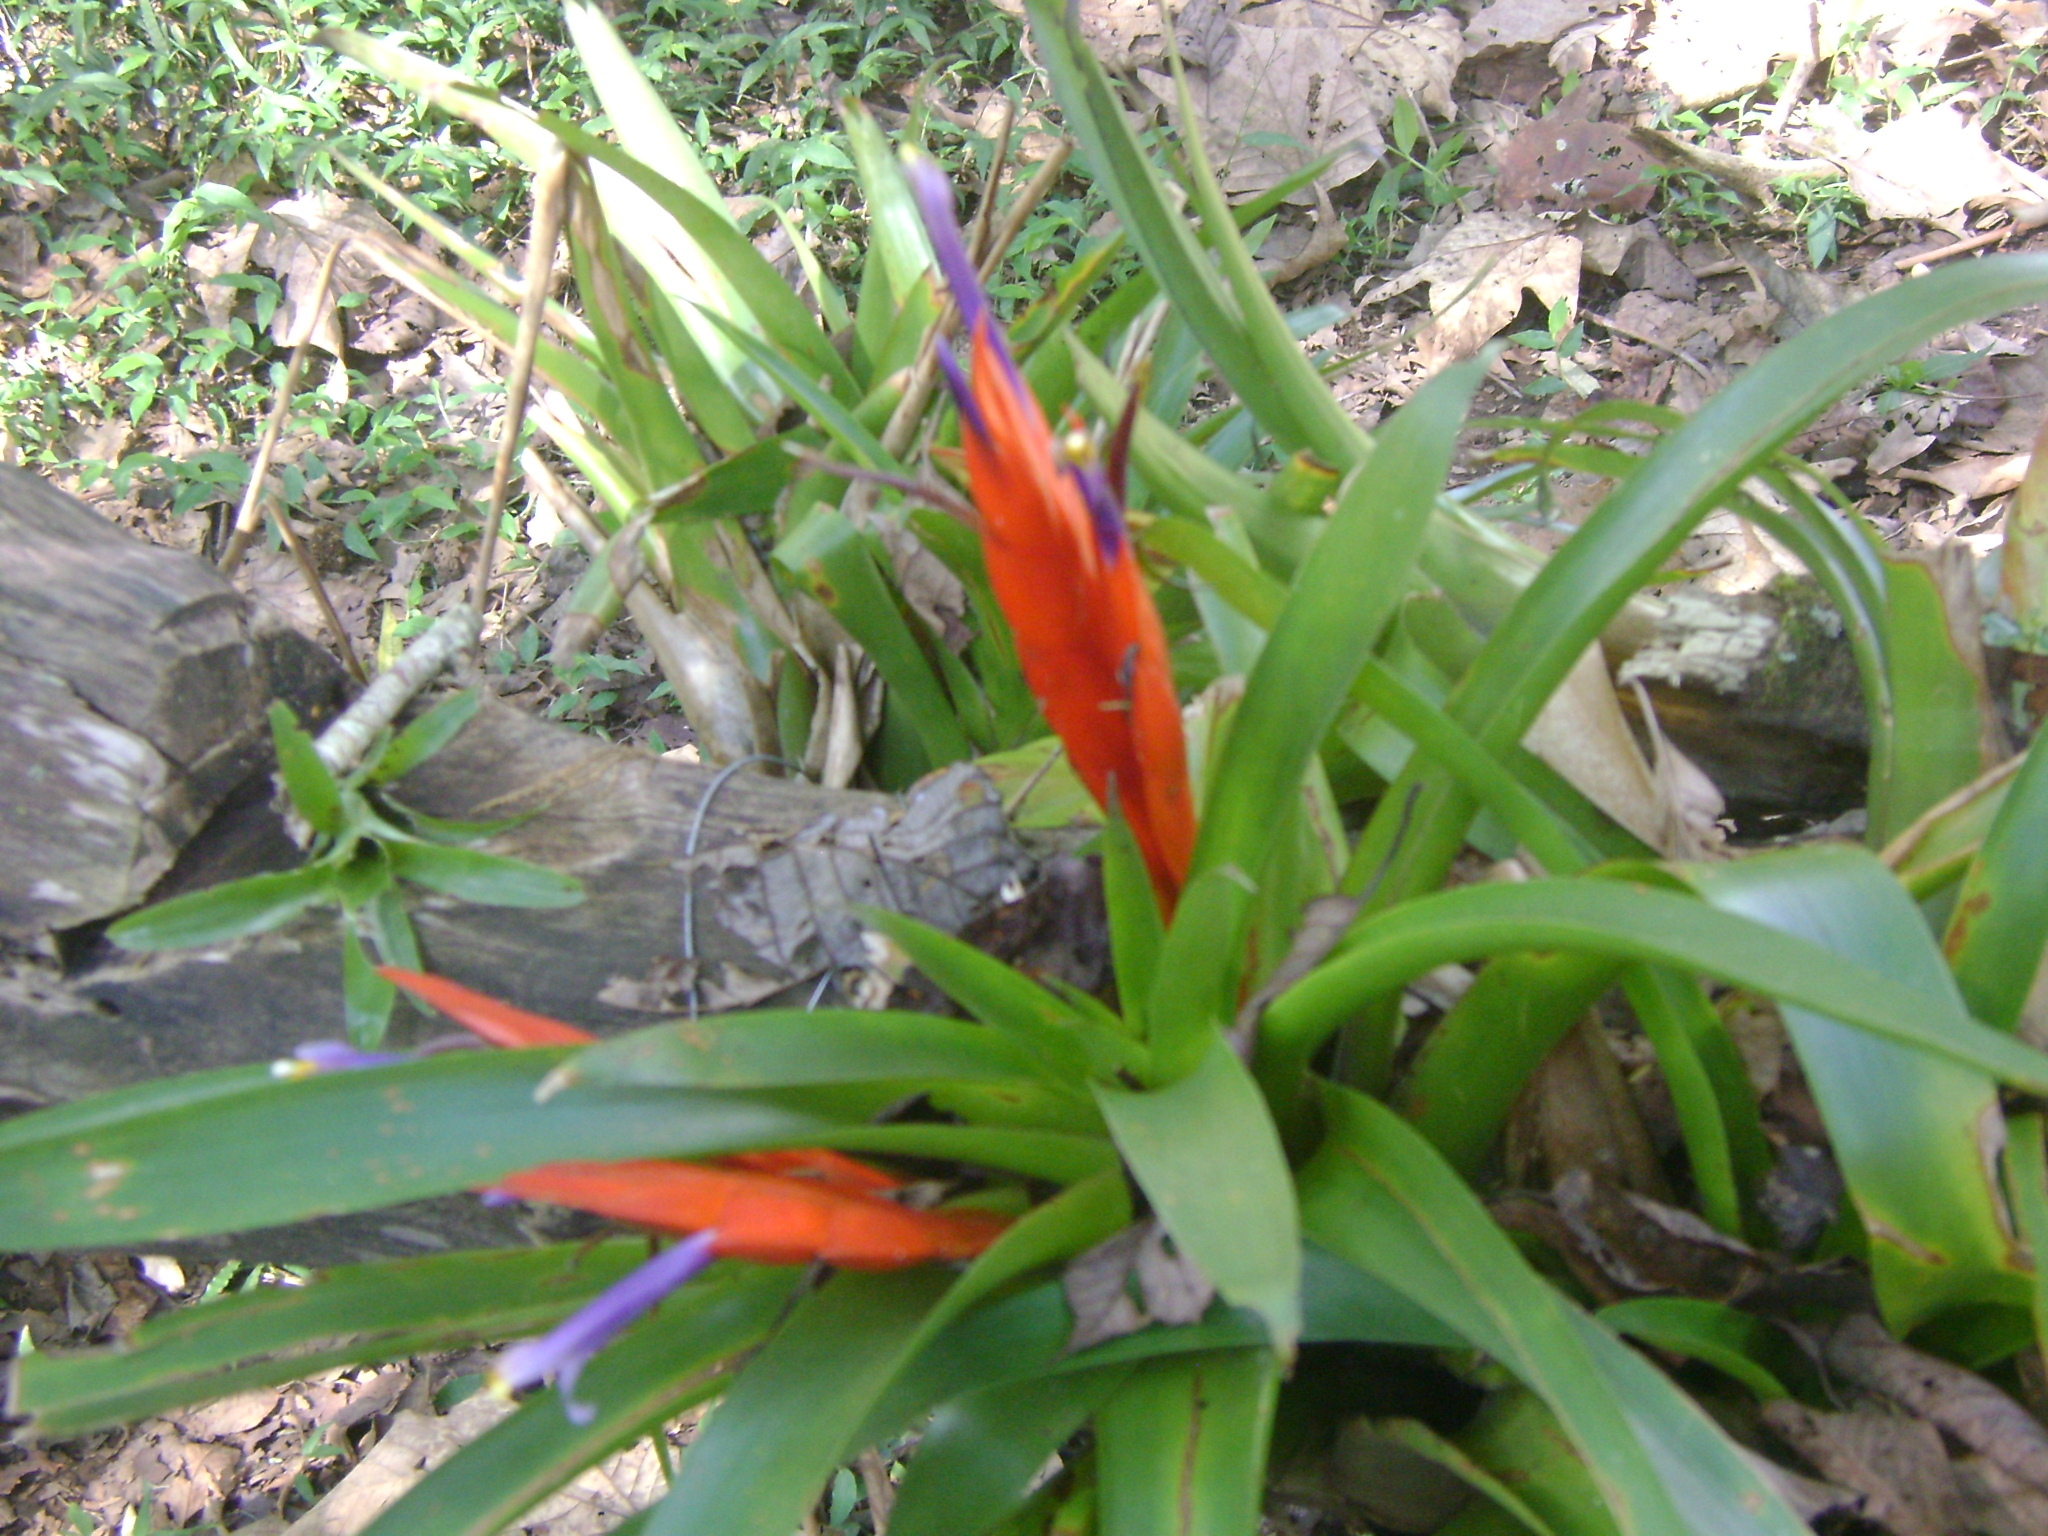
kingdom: Plantae
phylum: Tracheophyta
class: Liliopsida
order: Poales
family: Bromeliaceae
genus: Tillandsia
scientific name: Tillandsia multicaulis
